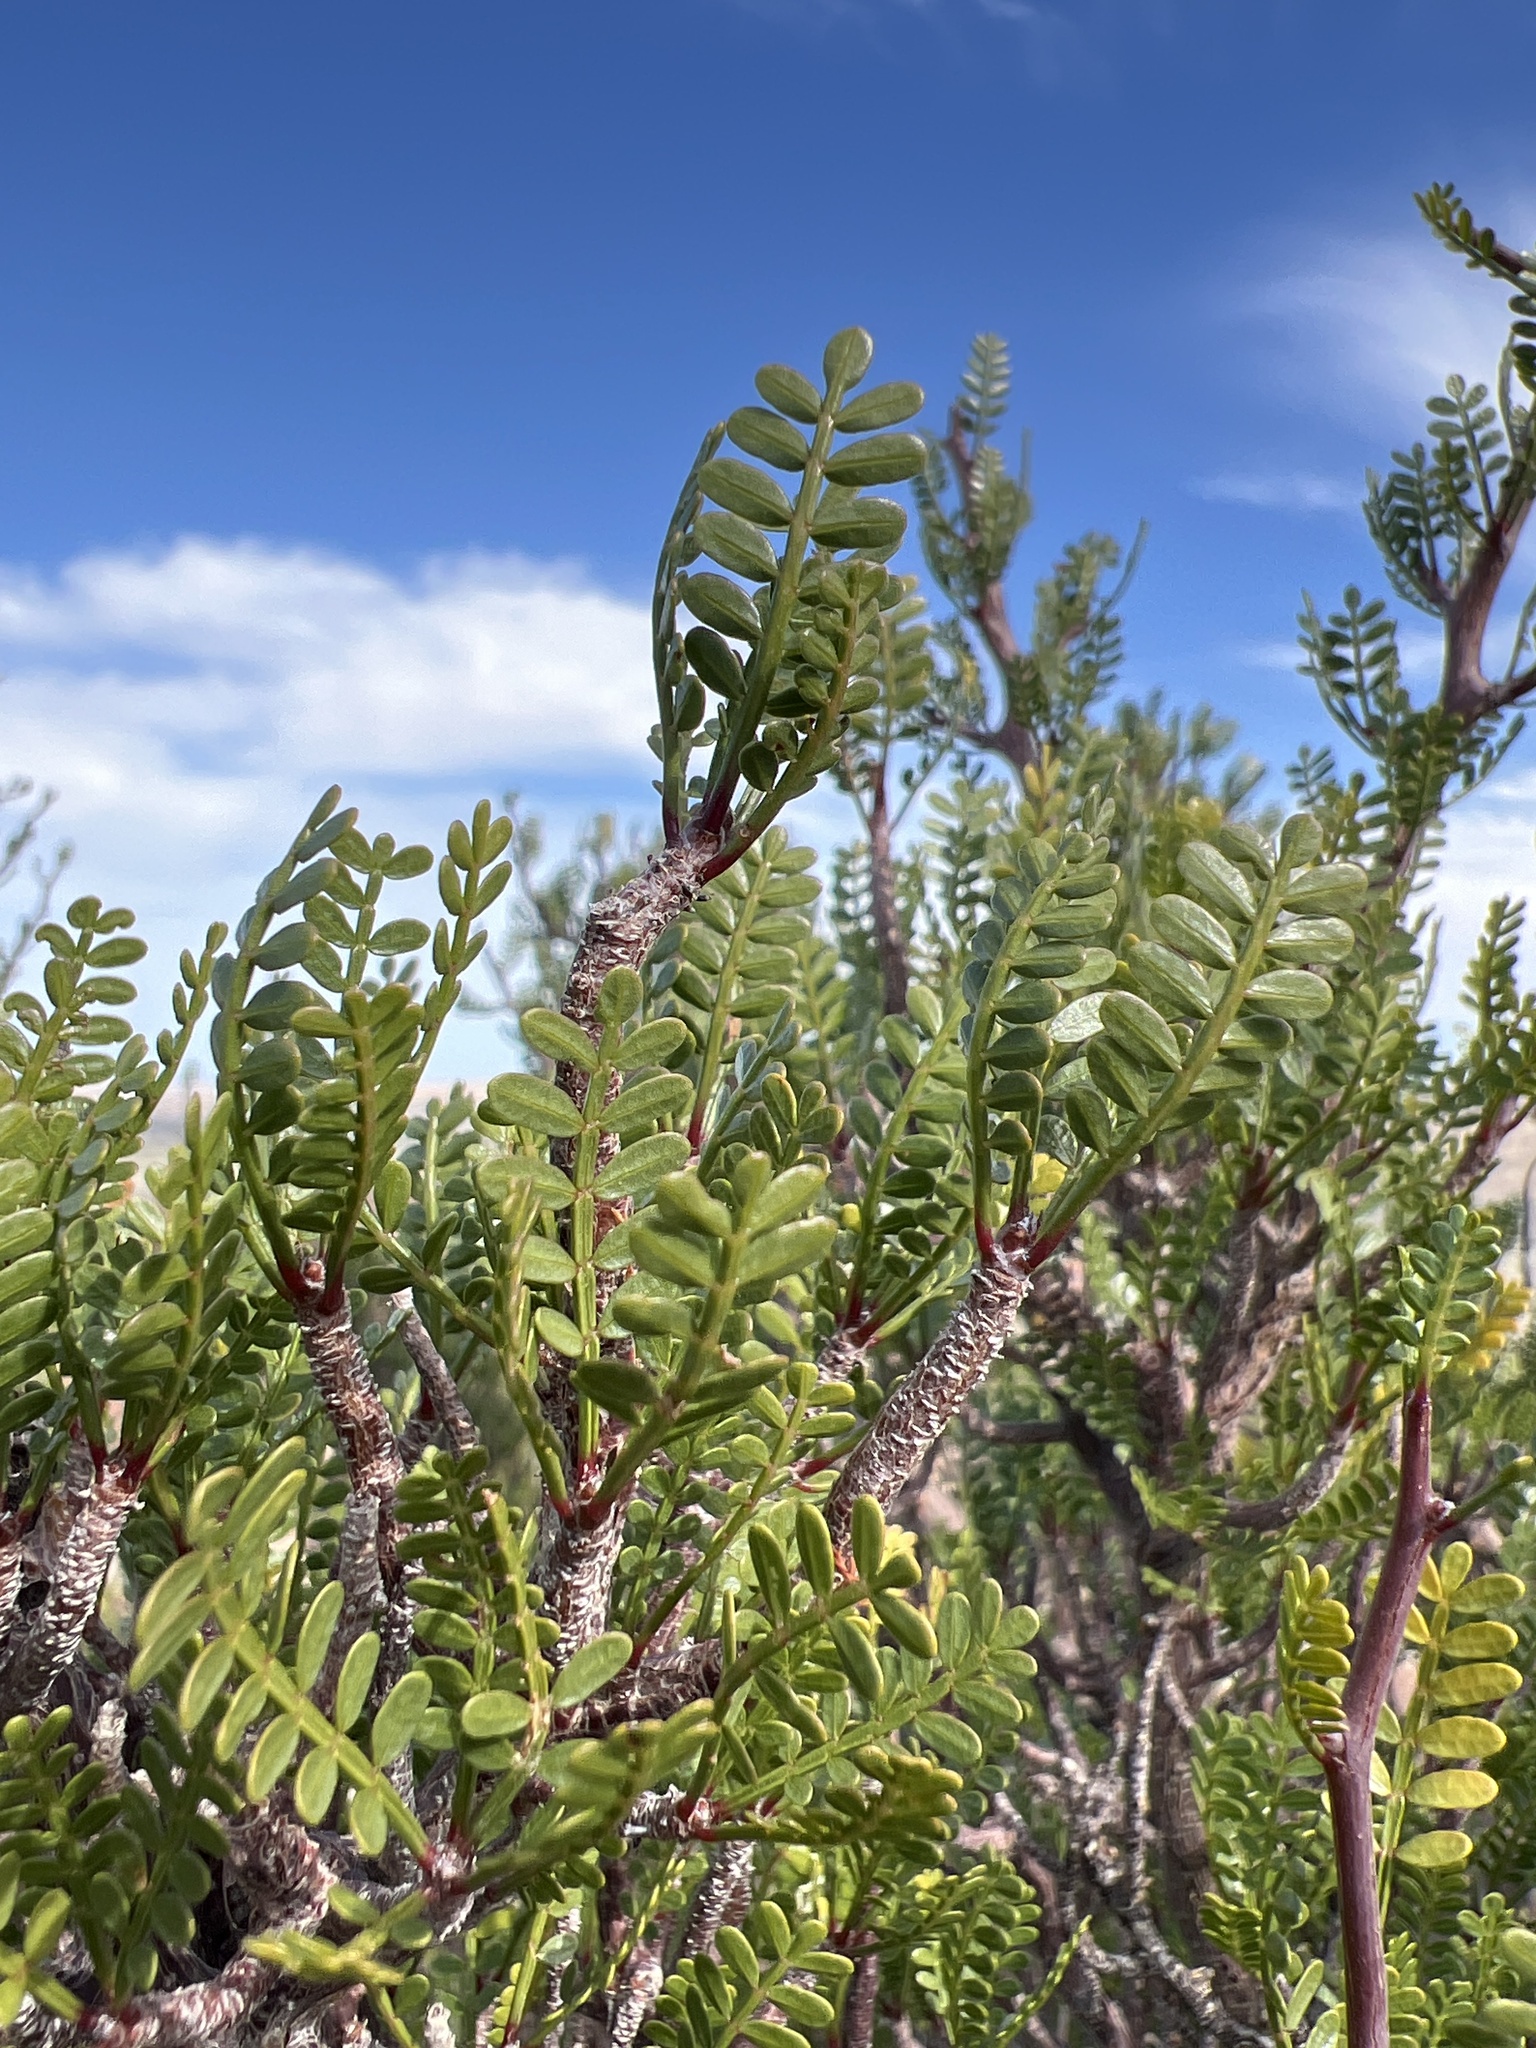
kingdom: Plantae
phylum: Tracheophyta
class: Magnoliopsida
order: Sapindales
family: Burseraceae
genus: Bursera
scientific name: Bursera microphylla
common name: Elephant tree
